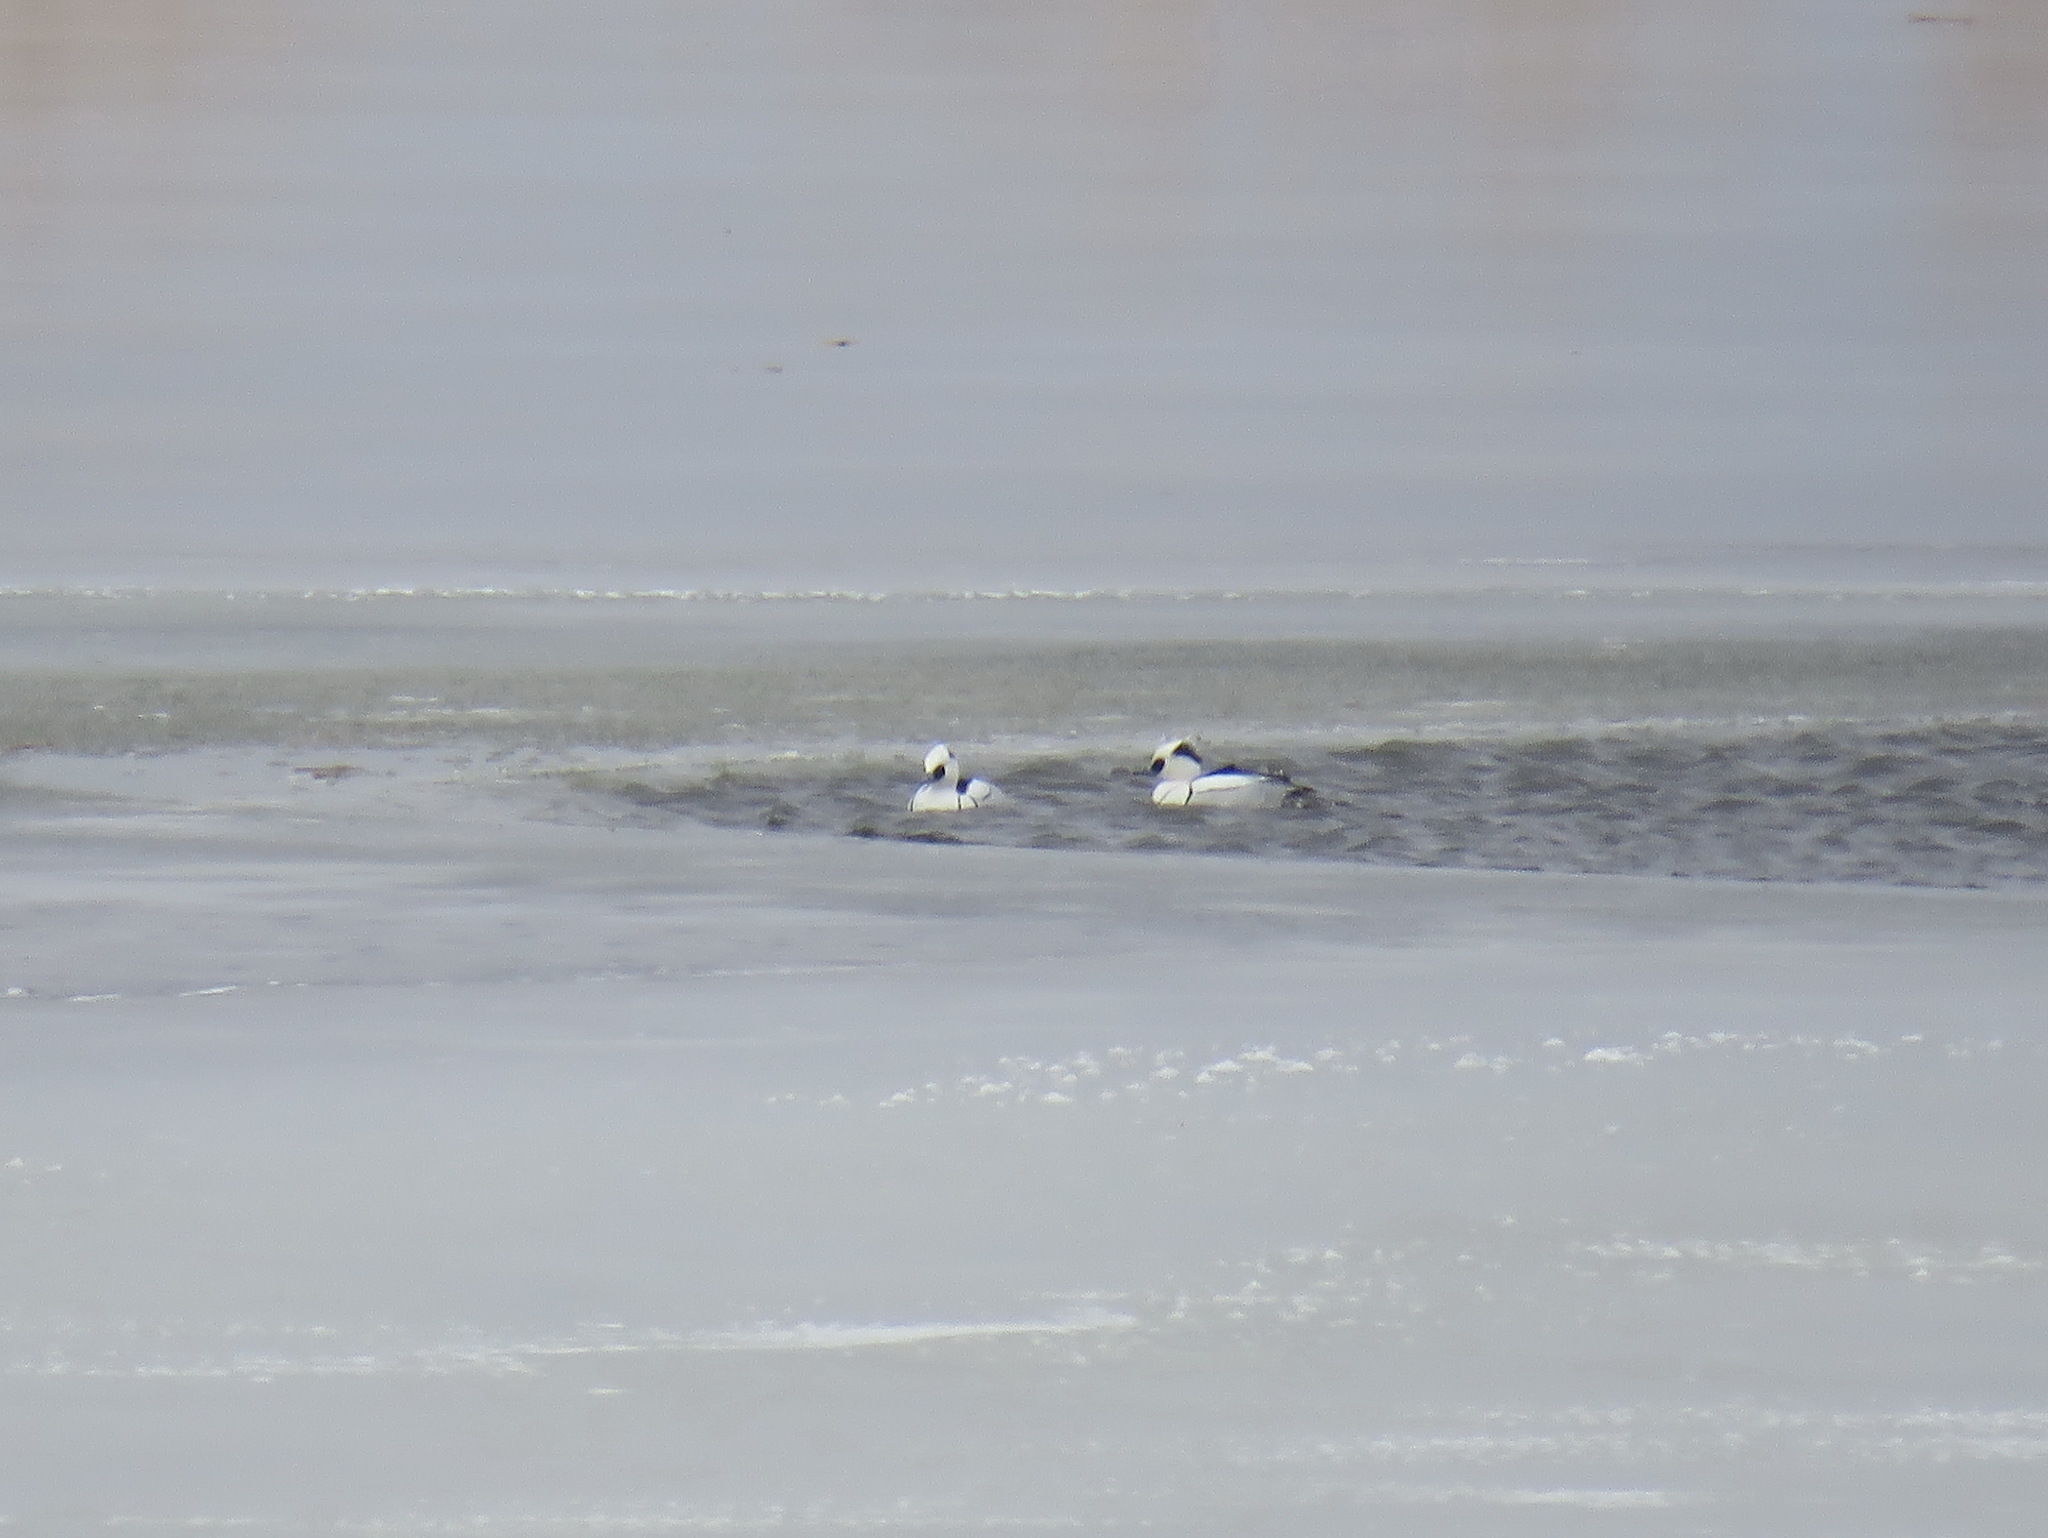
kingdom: Animalia
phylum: Chordata
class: Aves
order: Anseriformes
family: Anatidae
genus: Mergellus
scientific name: Mergellus albellus
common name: Smew
